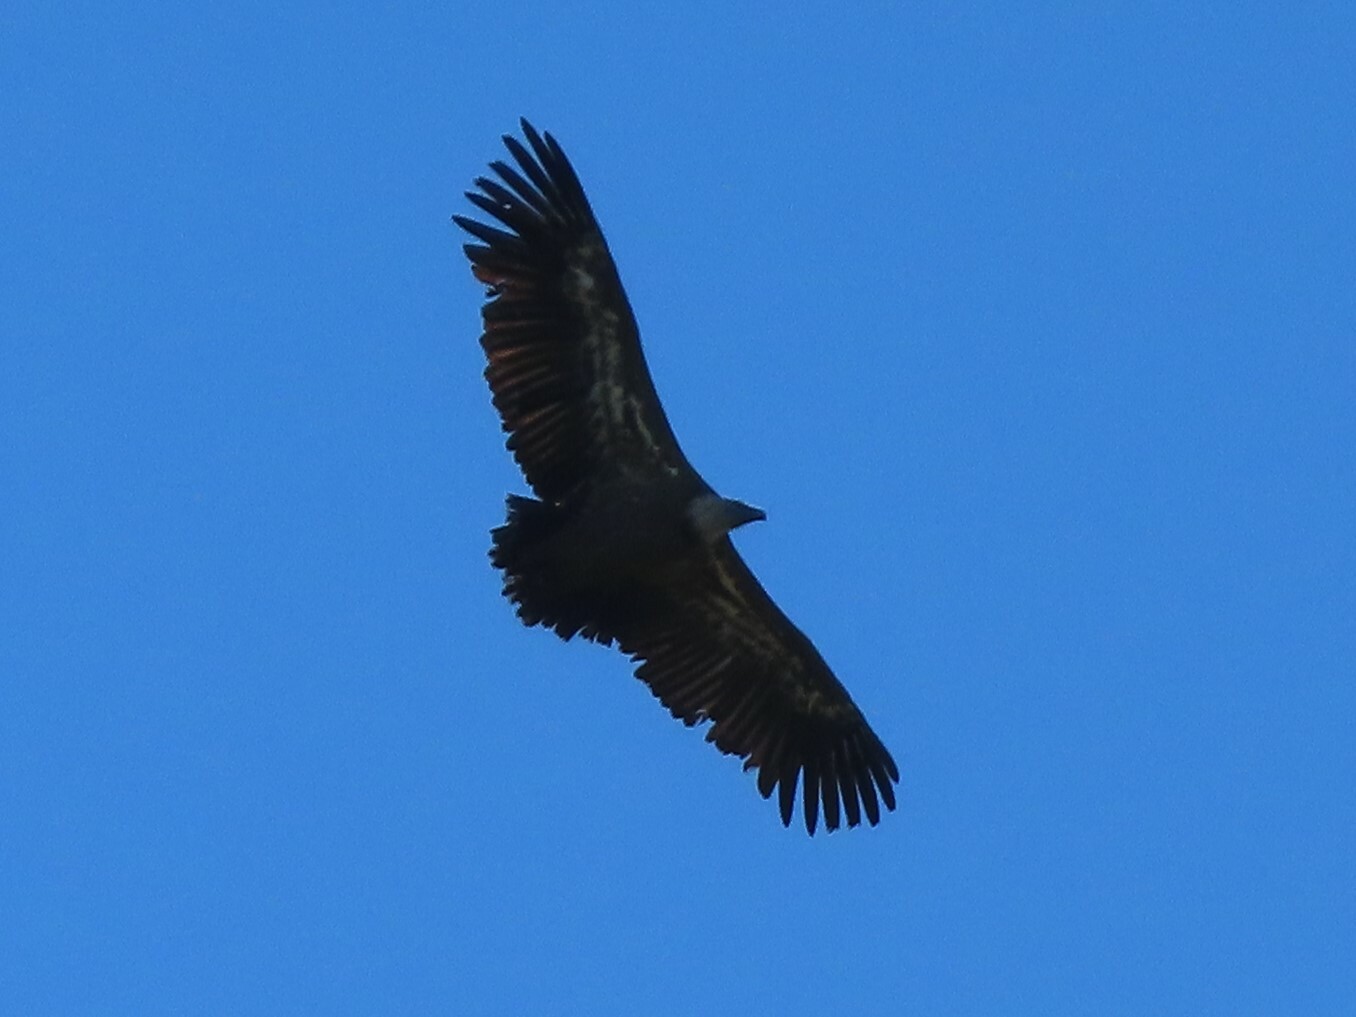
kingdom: Animalia
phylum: Chordata
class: Aves
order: Accipitriformes
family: Accipitridae
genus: Gyps
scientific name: Gyps fulvus
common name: Griffon vulture
